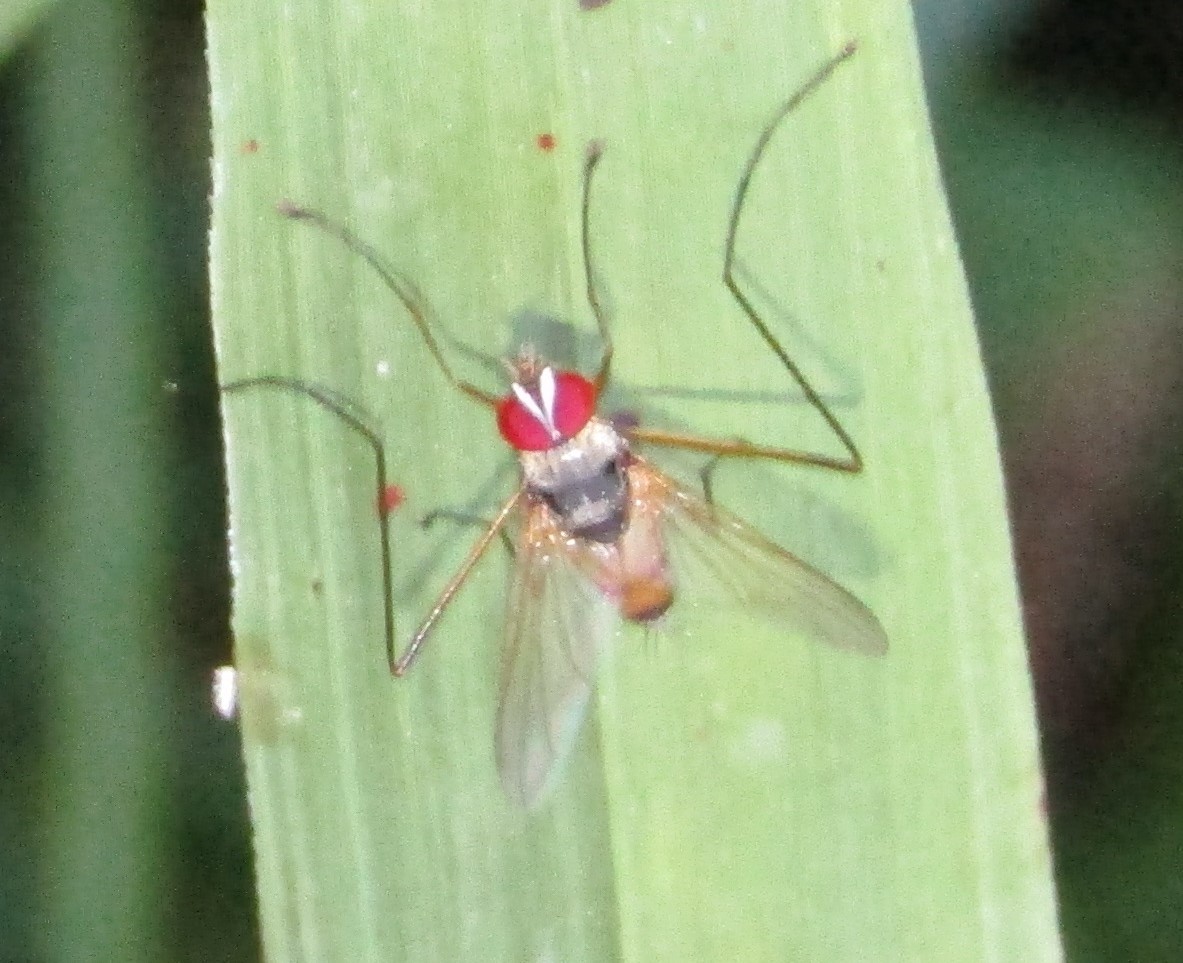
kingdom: Animalia
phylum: Arthropoda
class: Insecta
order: Diptera
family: Tachinidae
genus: Cholomyia
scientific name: Cholomyia inaequipes
